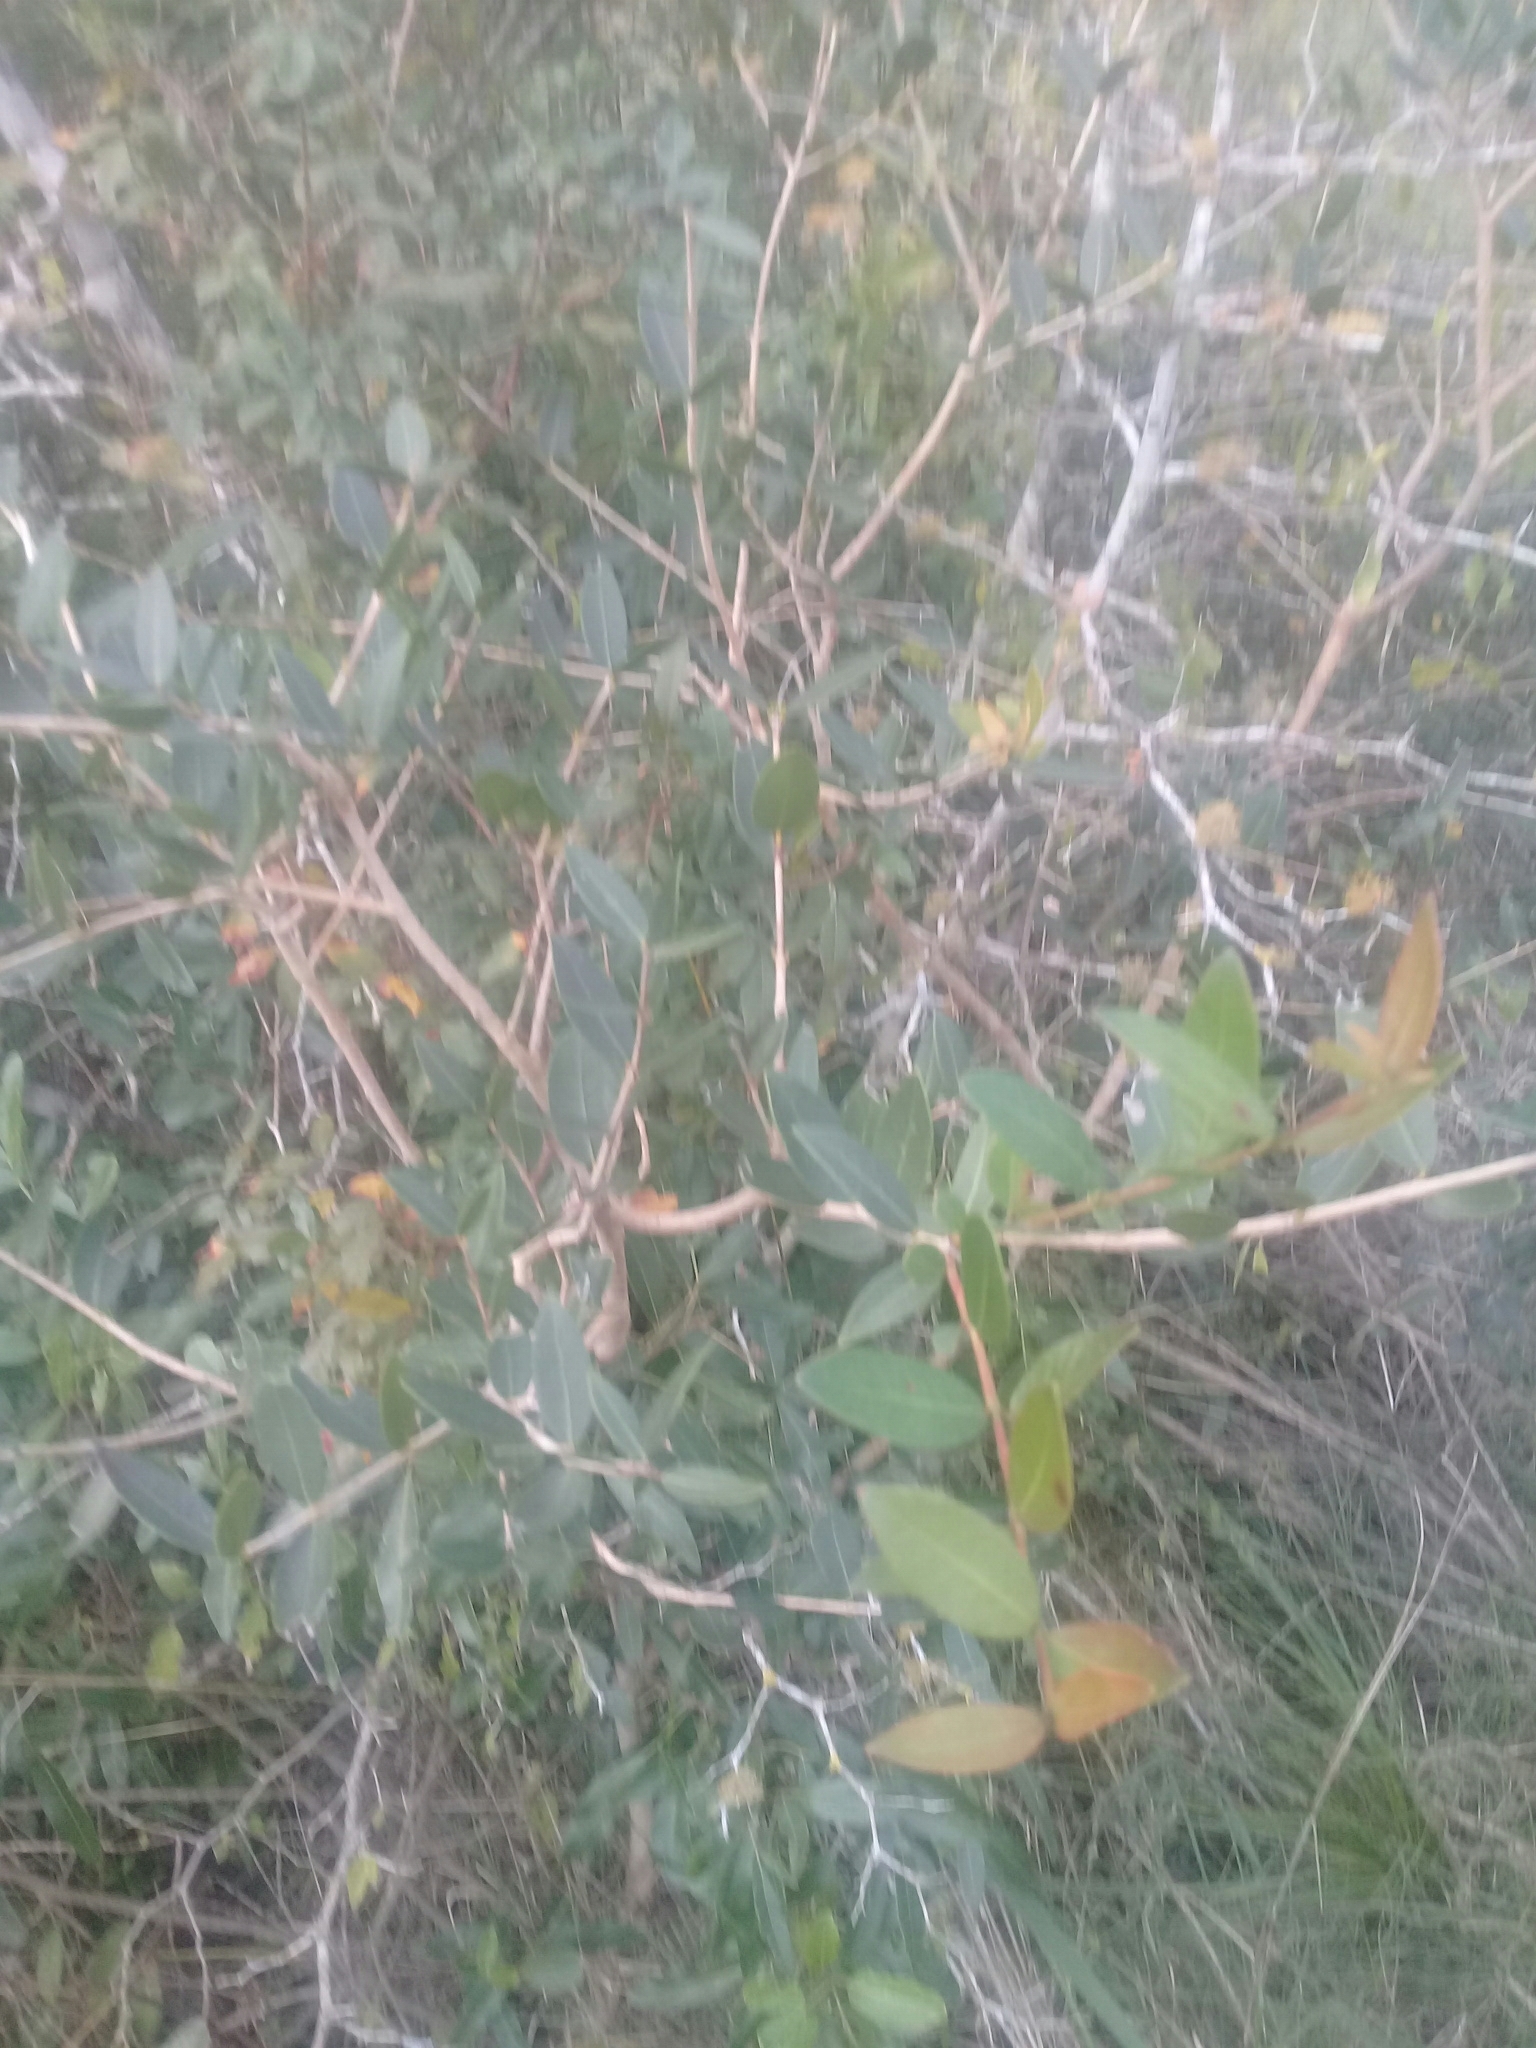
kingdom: Plantae
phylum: Tracheophyta
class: Magnoliopsida
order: Myrtales
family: Myrtaceae
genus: Myrcianthes
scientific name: Myrcianthes cisplatensis
